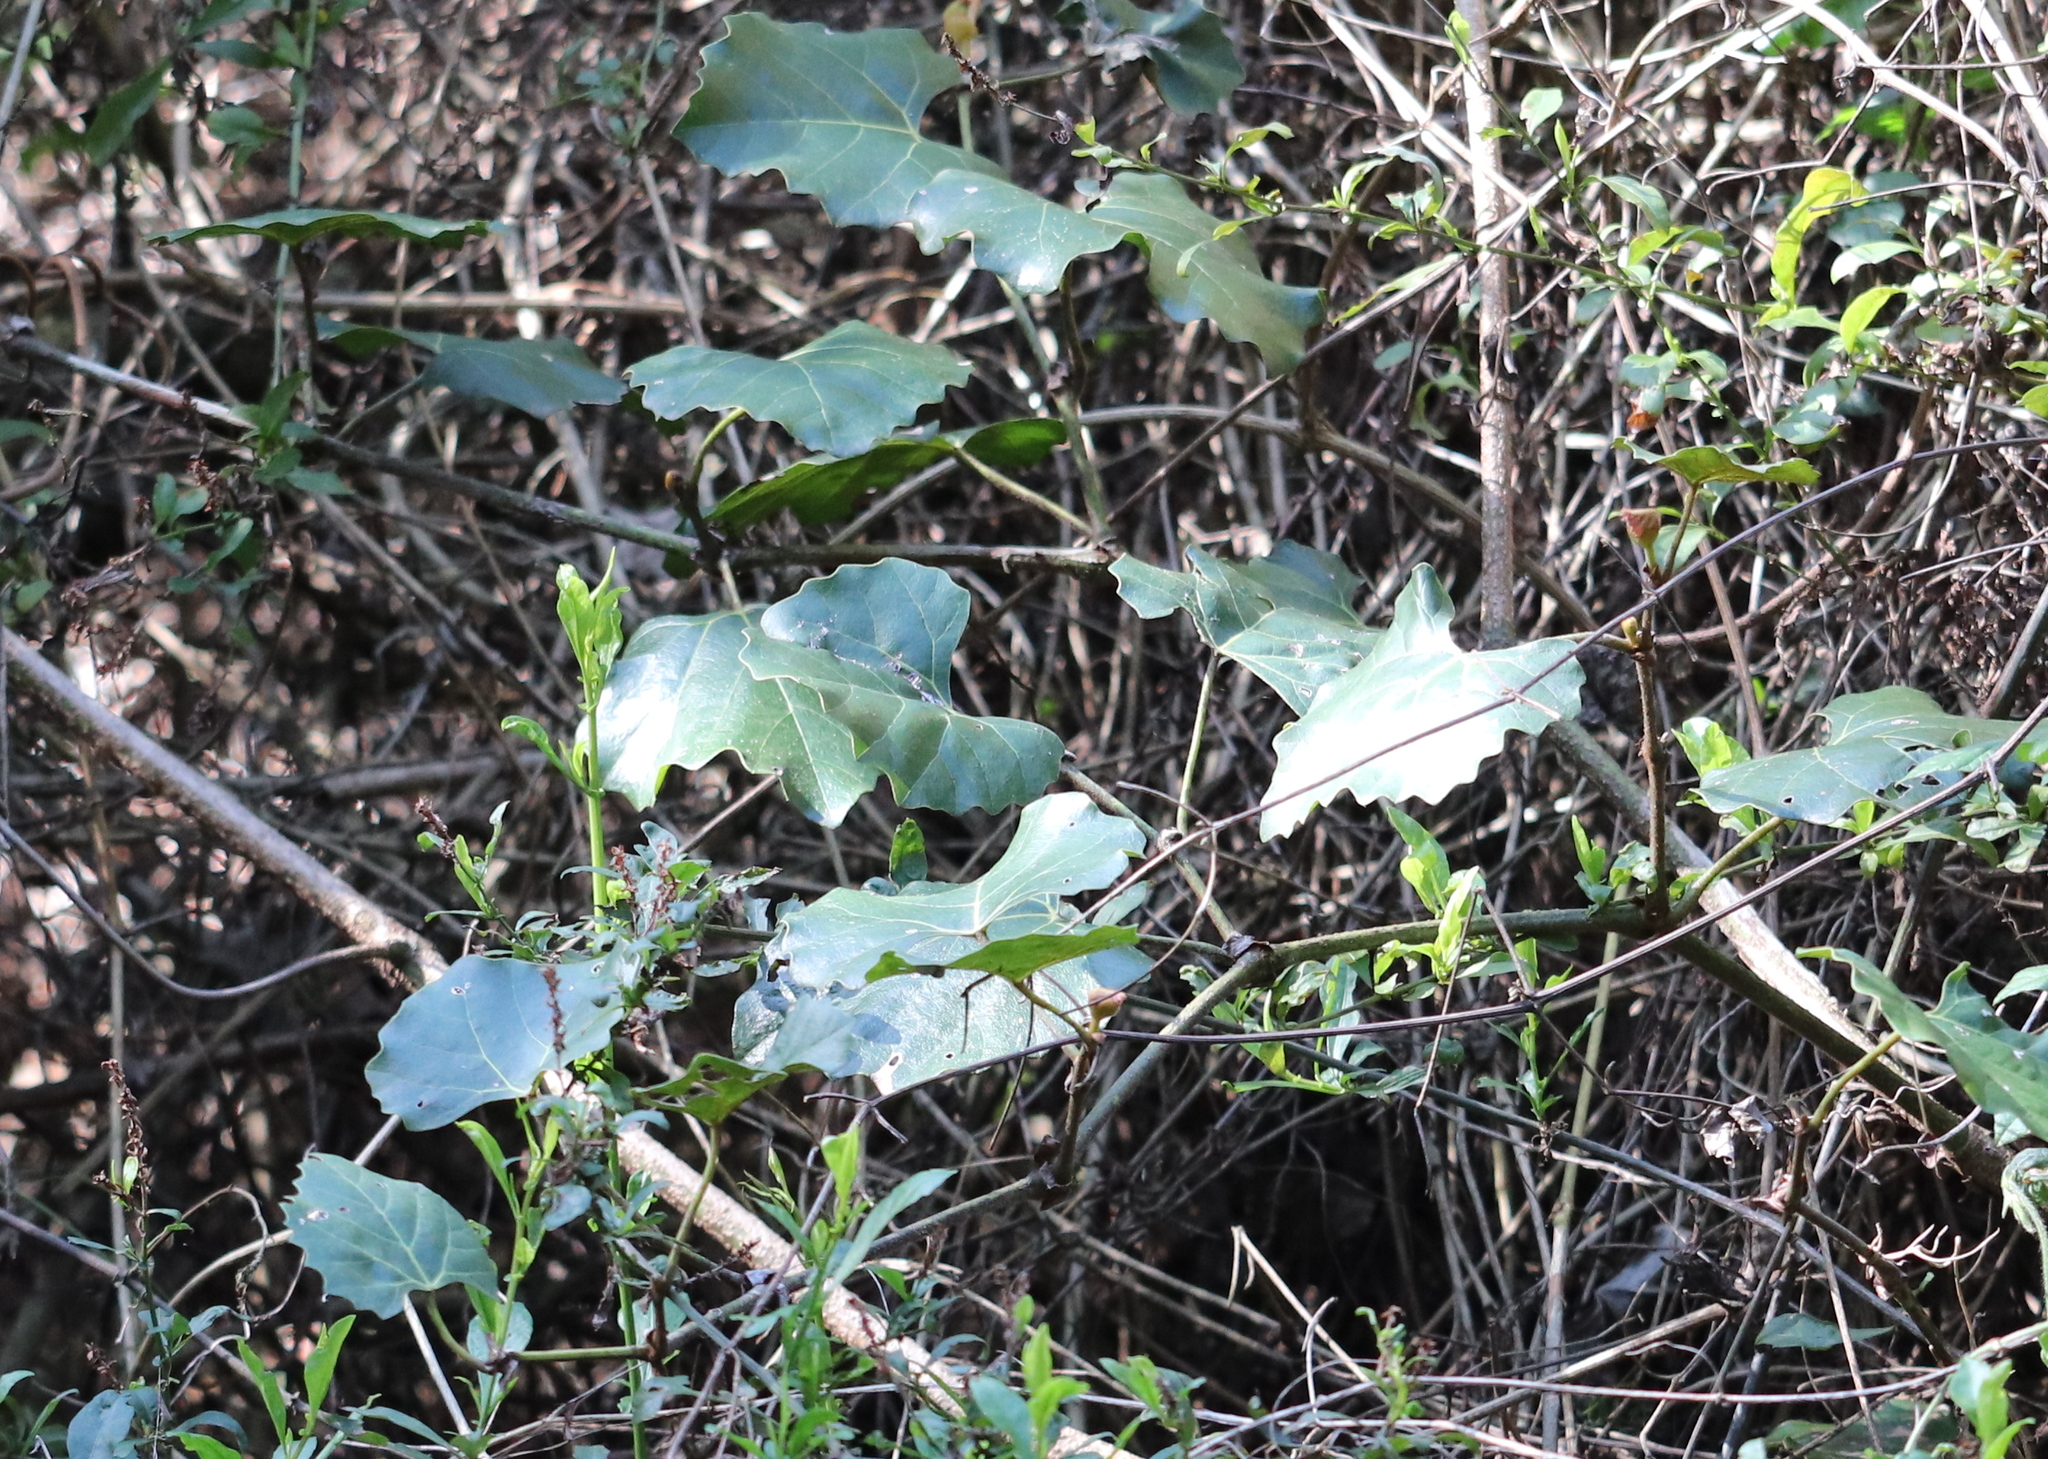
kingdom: Plantae
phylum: Tracheophyta
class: Magnoliopsida
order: Vitales
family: Vitaceae
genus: Rhoicissus
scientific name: Rhoicissus tomentosa
